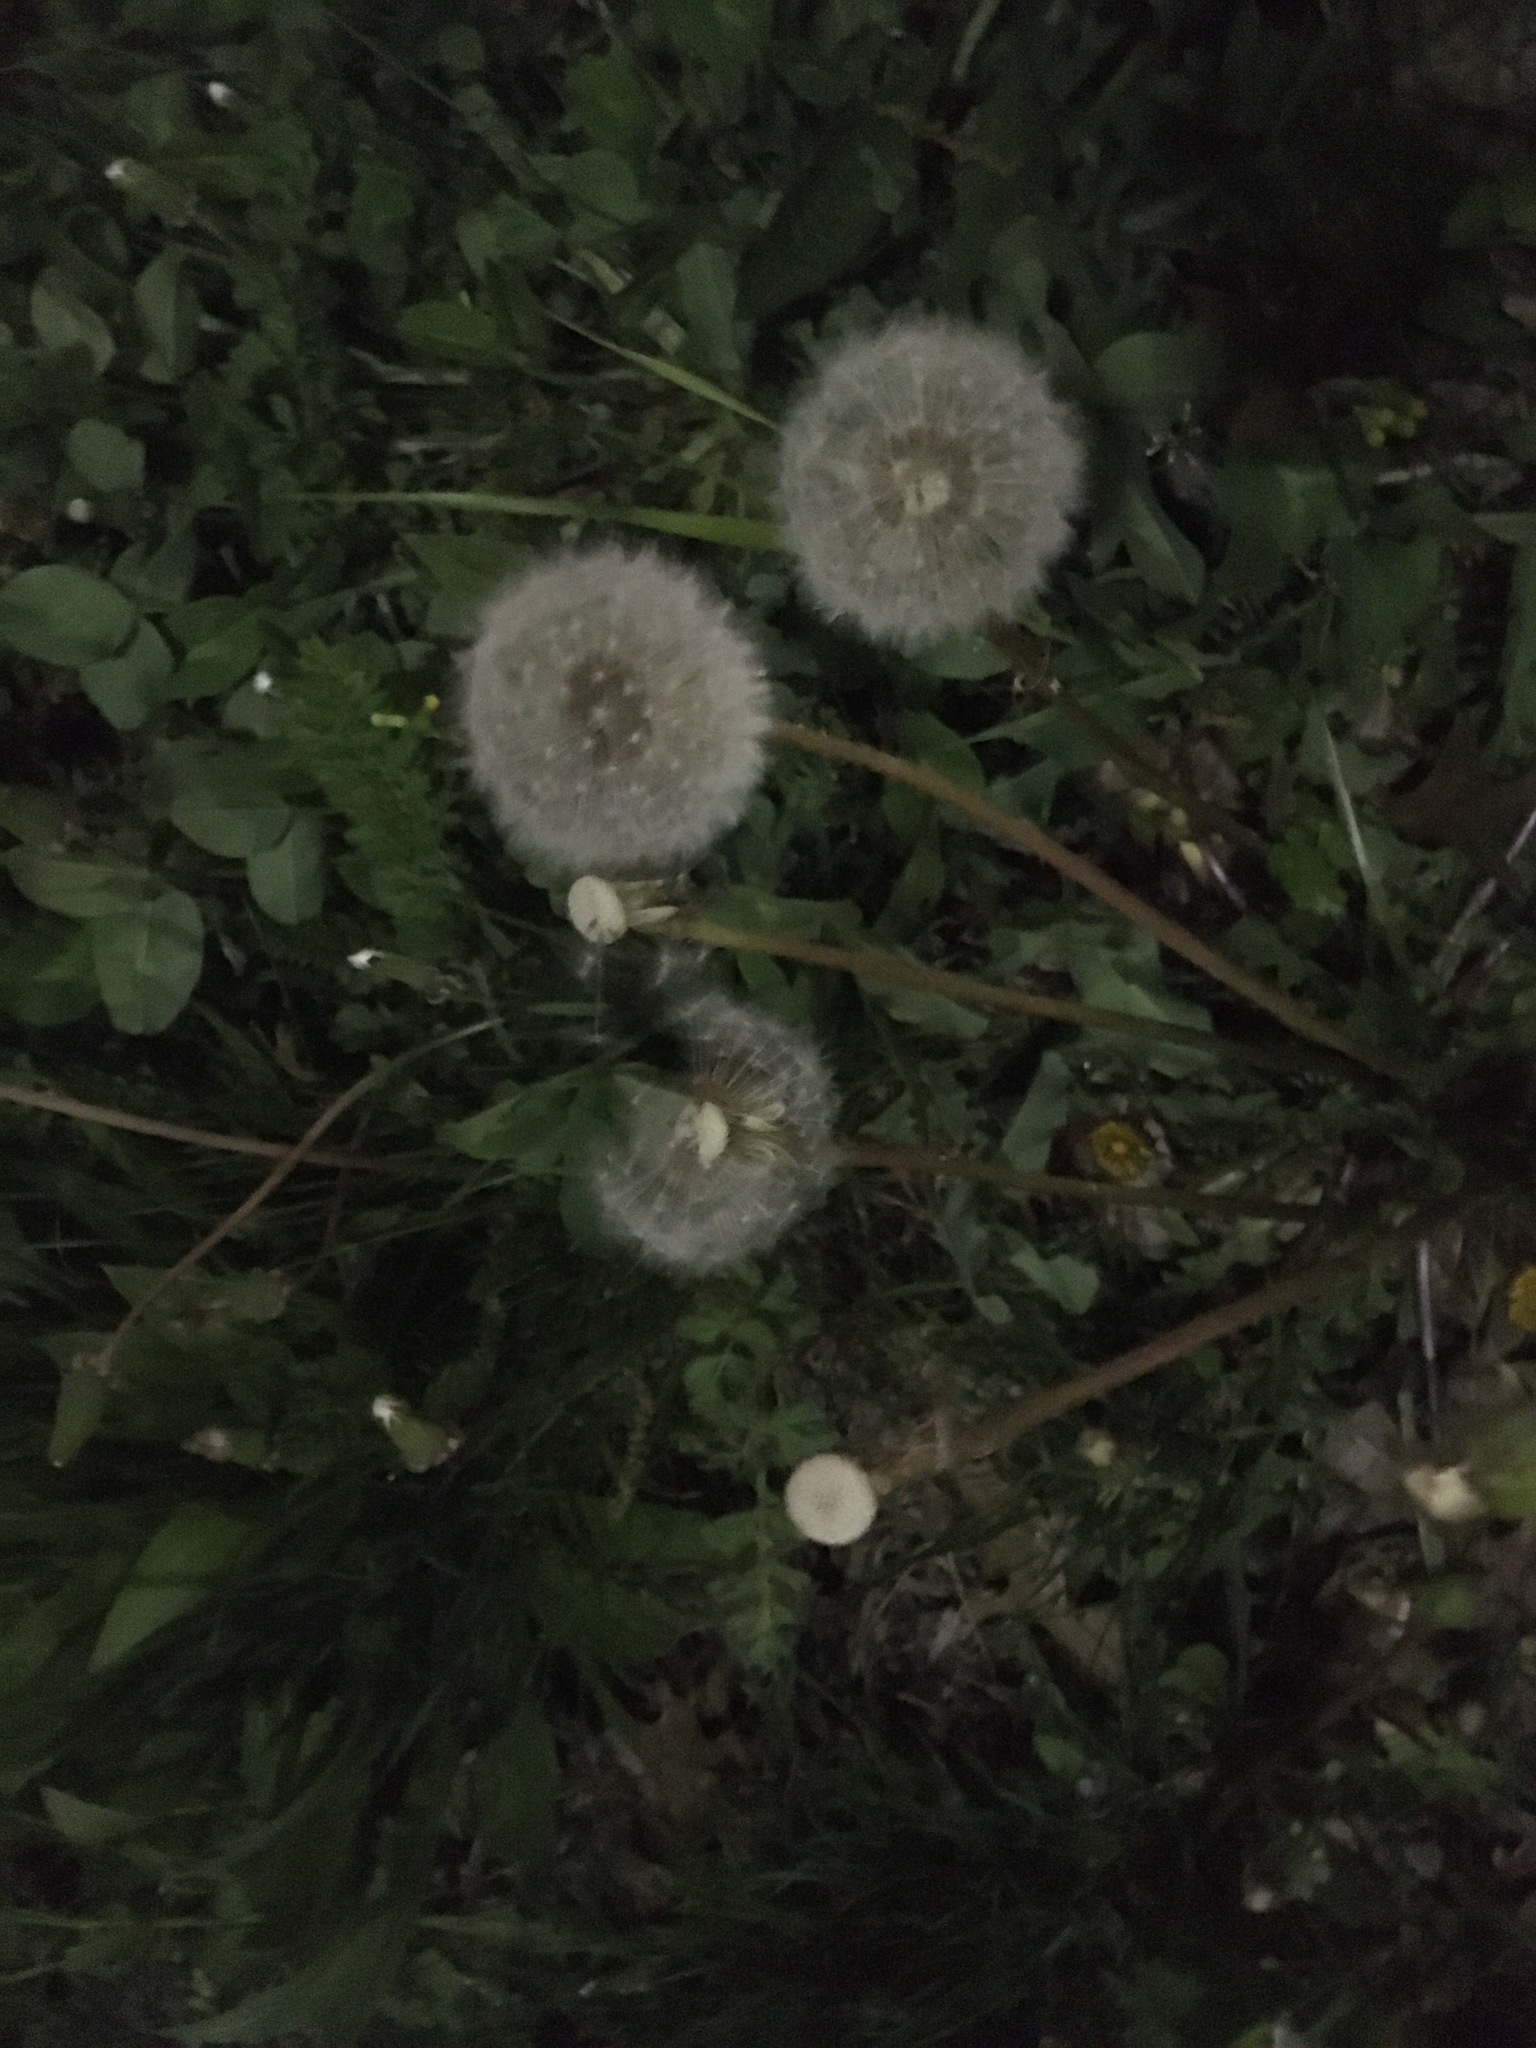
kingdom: Plantae
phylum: Tracheophyta
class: Magnoliopsida
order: Asterales
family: Asteraceae
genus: Taraxacum
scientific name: Taraxacum officinale
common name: Common dandelion
